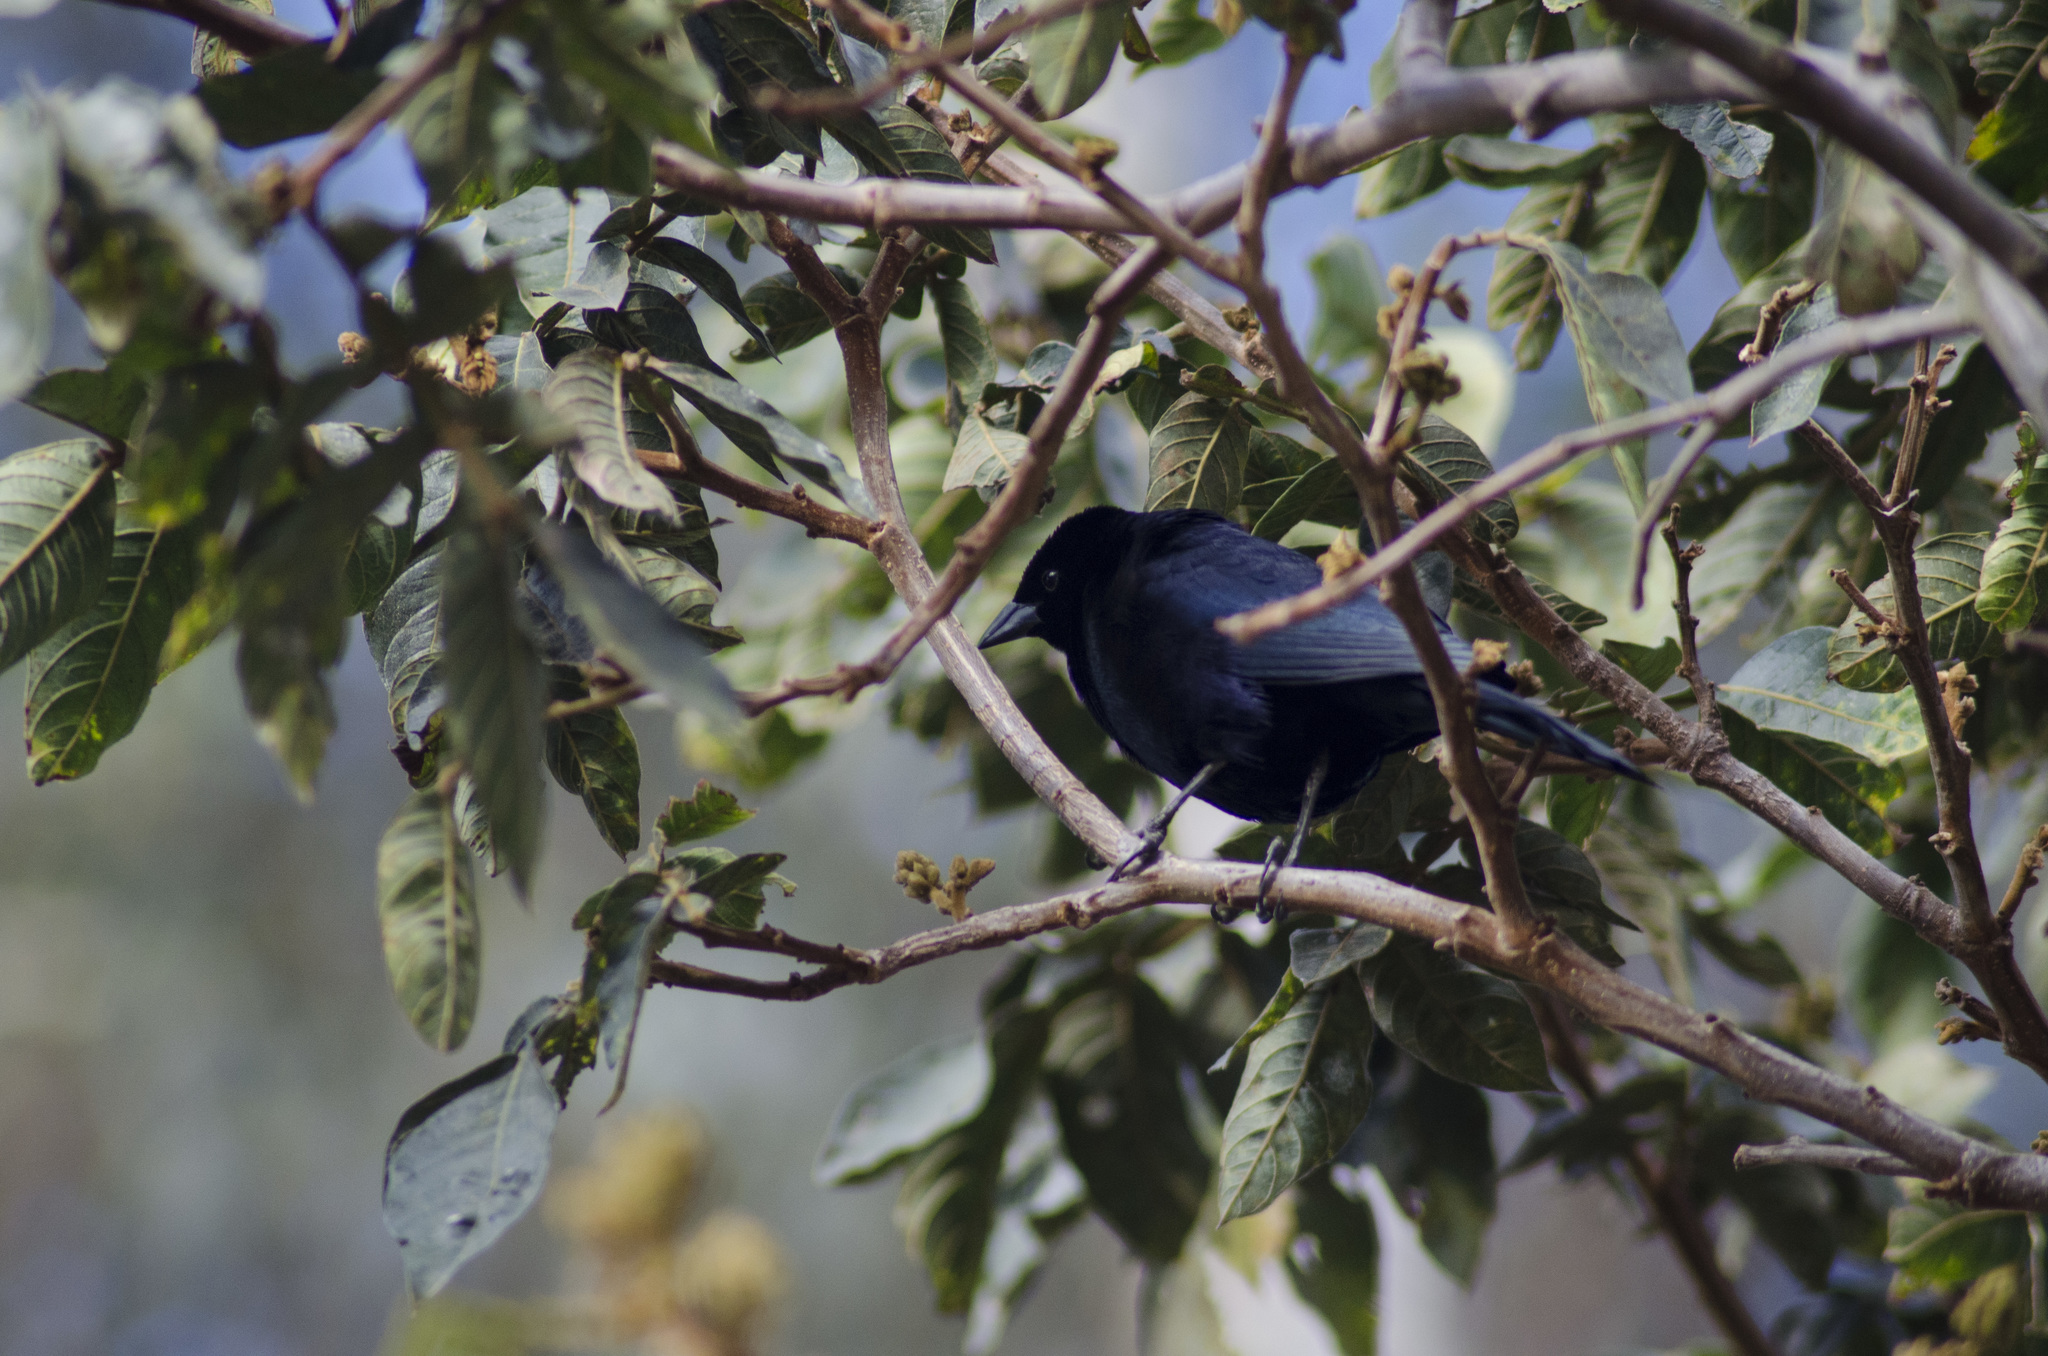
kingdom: Animalia
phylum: Chordata
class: Aves
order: Passeriformes
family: Icteridae
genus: Molothrus
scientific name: Molothrus bonariensis
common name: Shiny cowbird
